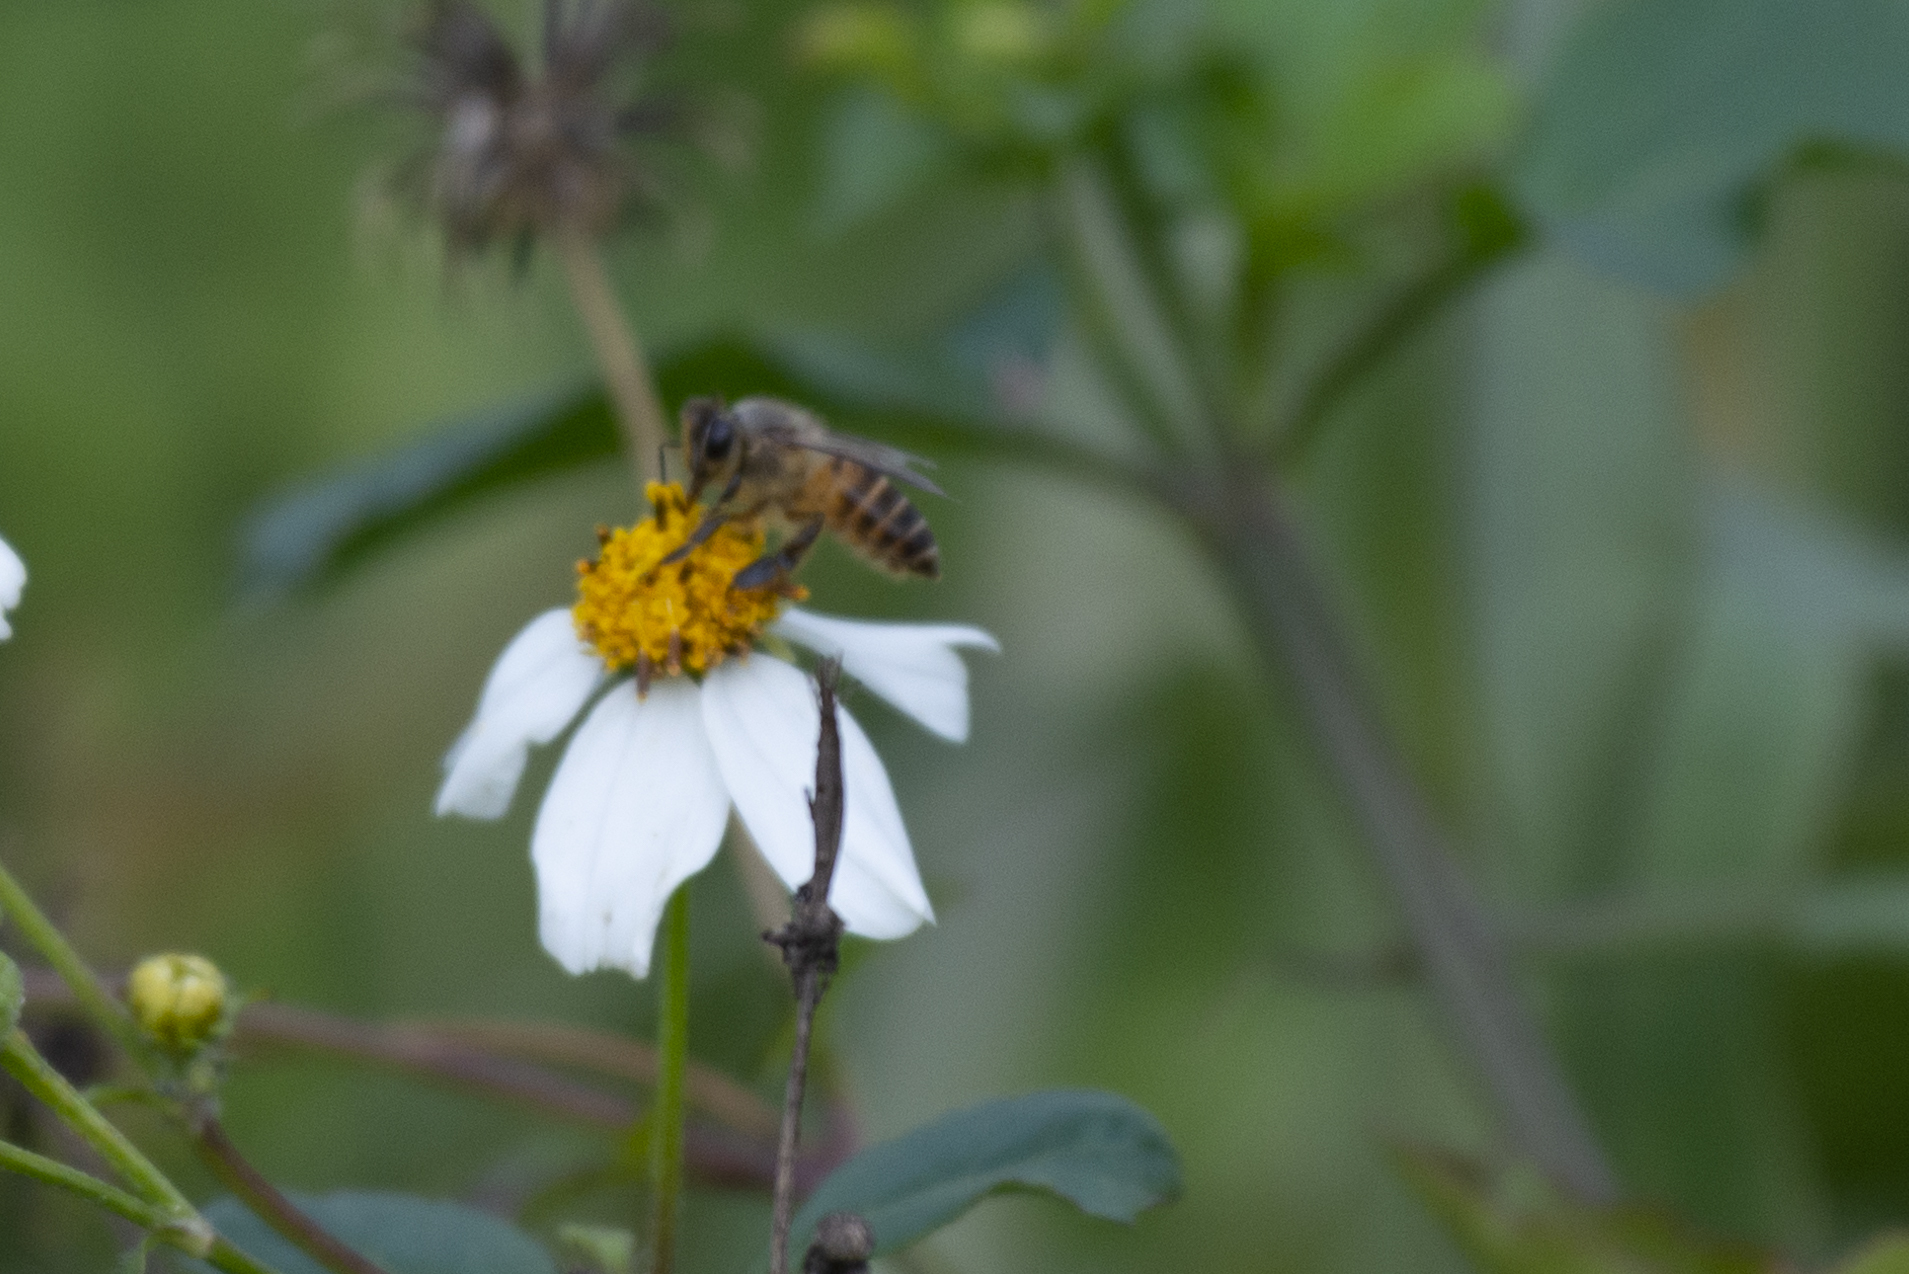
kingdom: Animalia
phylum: Arthropoda
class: Insecta
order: Hymenoptera
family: Apidae
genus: Apis
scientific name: Apis cerana
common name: Honey bee
